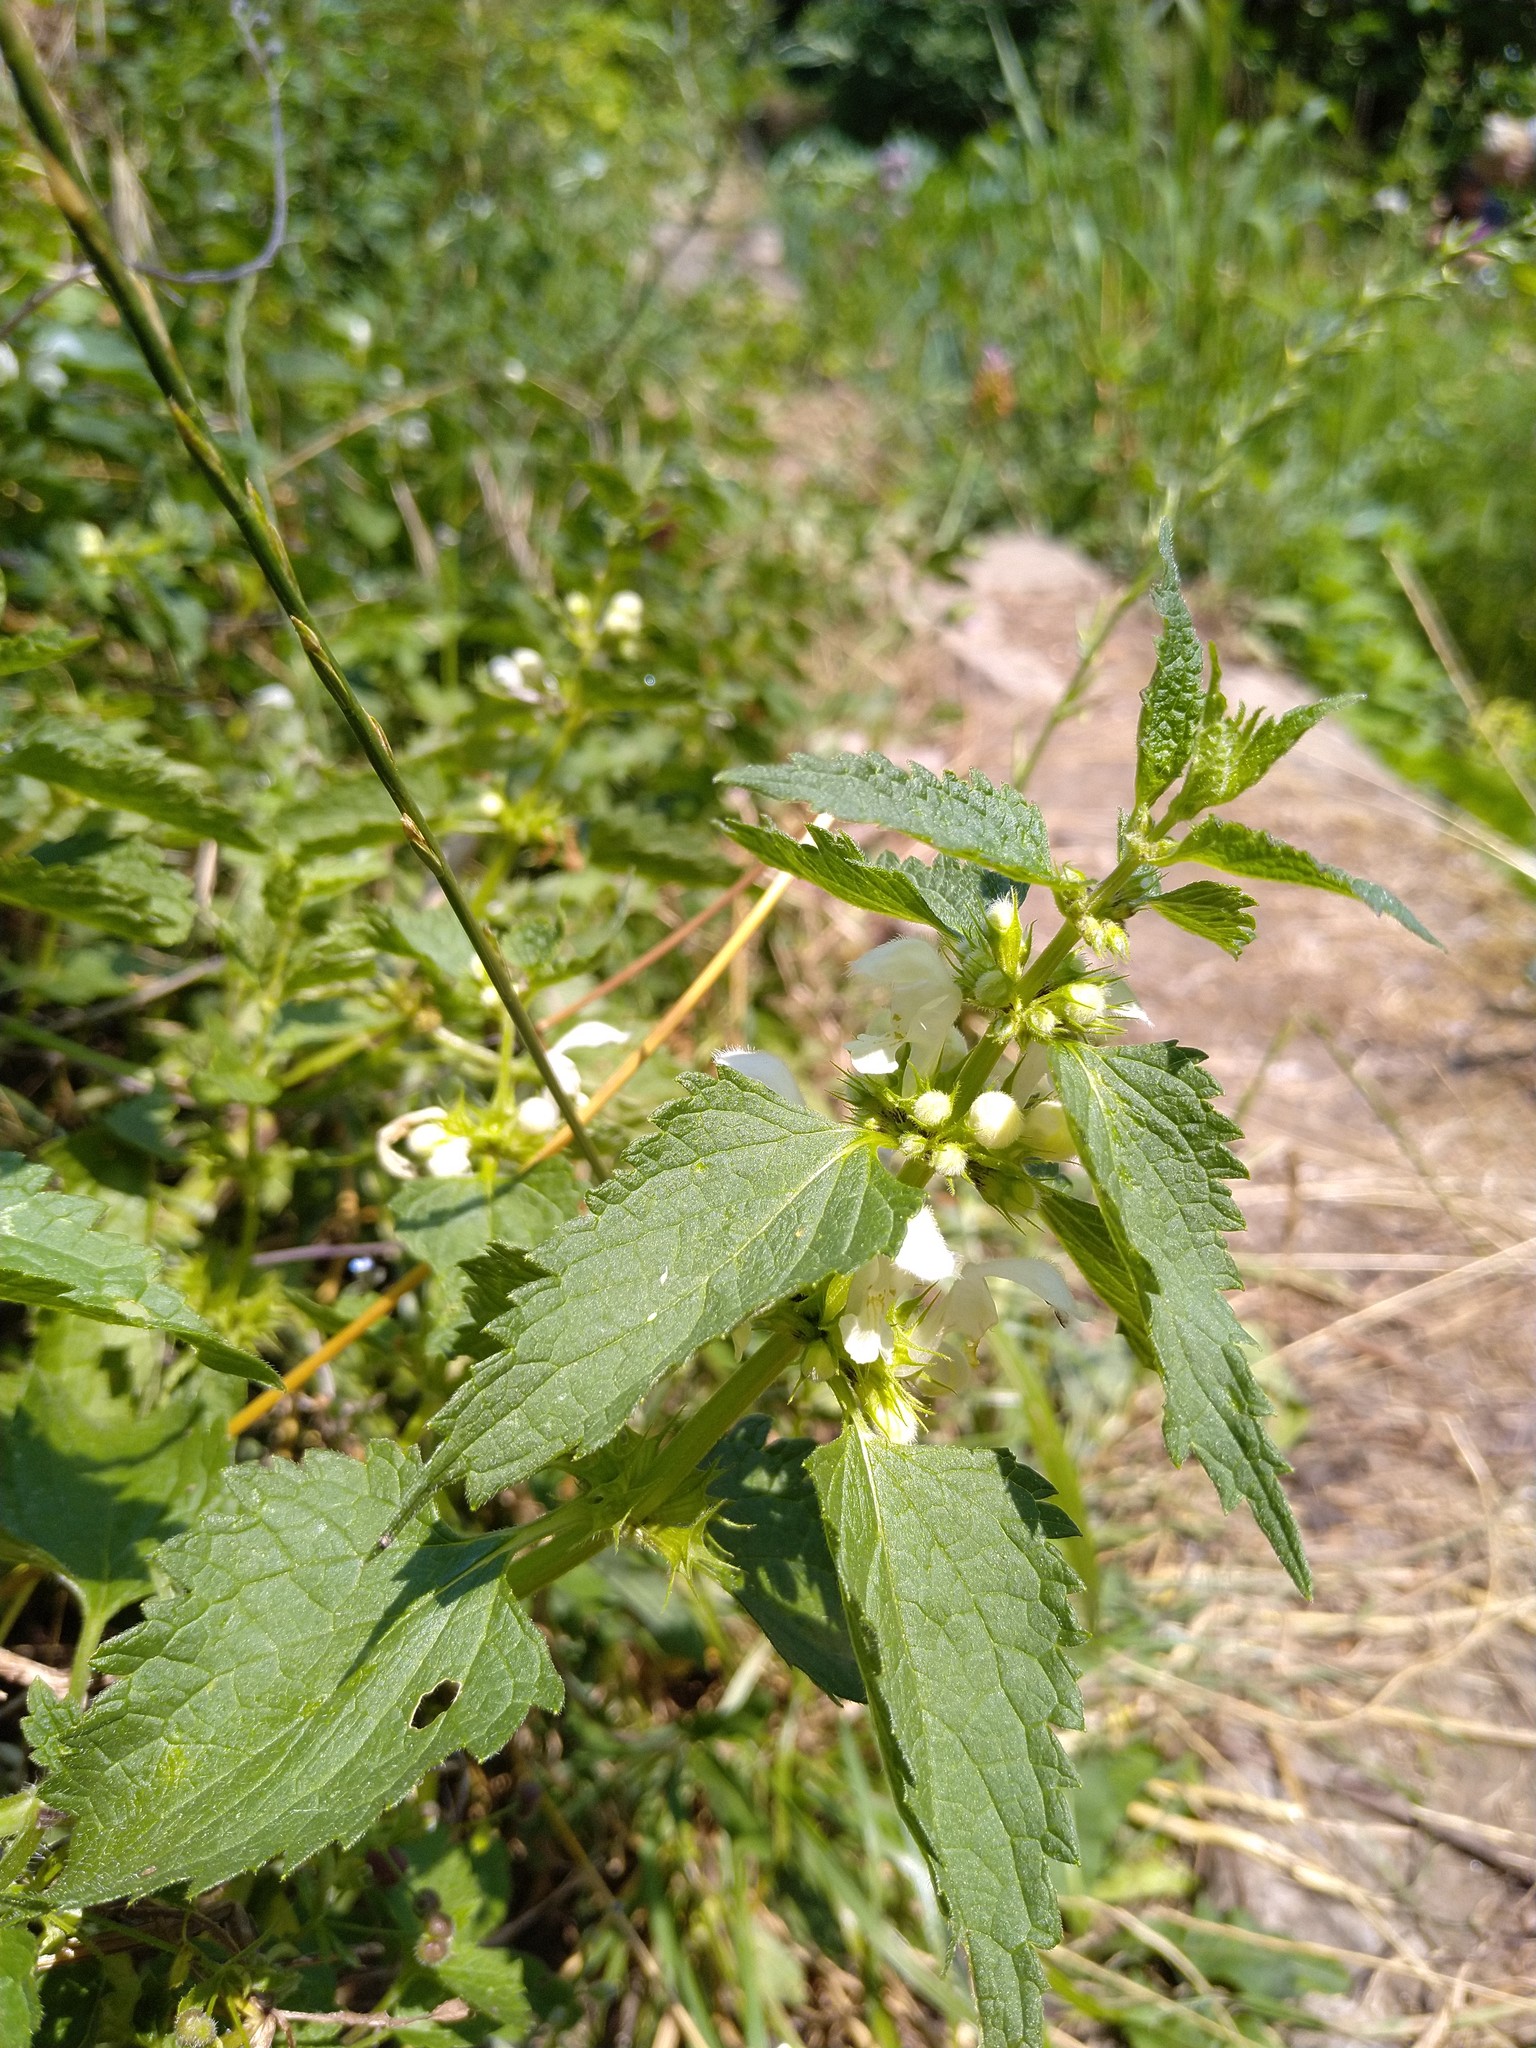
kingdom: Plantae
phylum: Tracheophyta
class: Magnoliopsida
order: Lamiales
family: Lamiaceae
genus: Lamium
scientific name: Lamium album
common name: White dead-nettle
